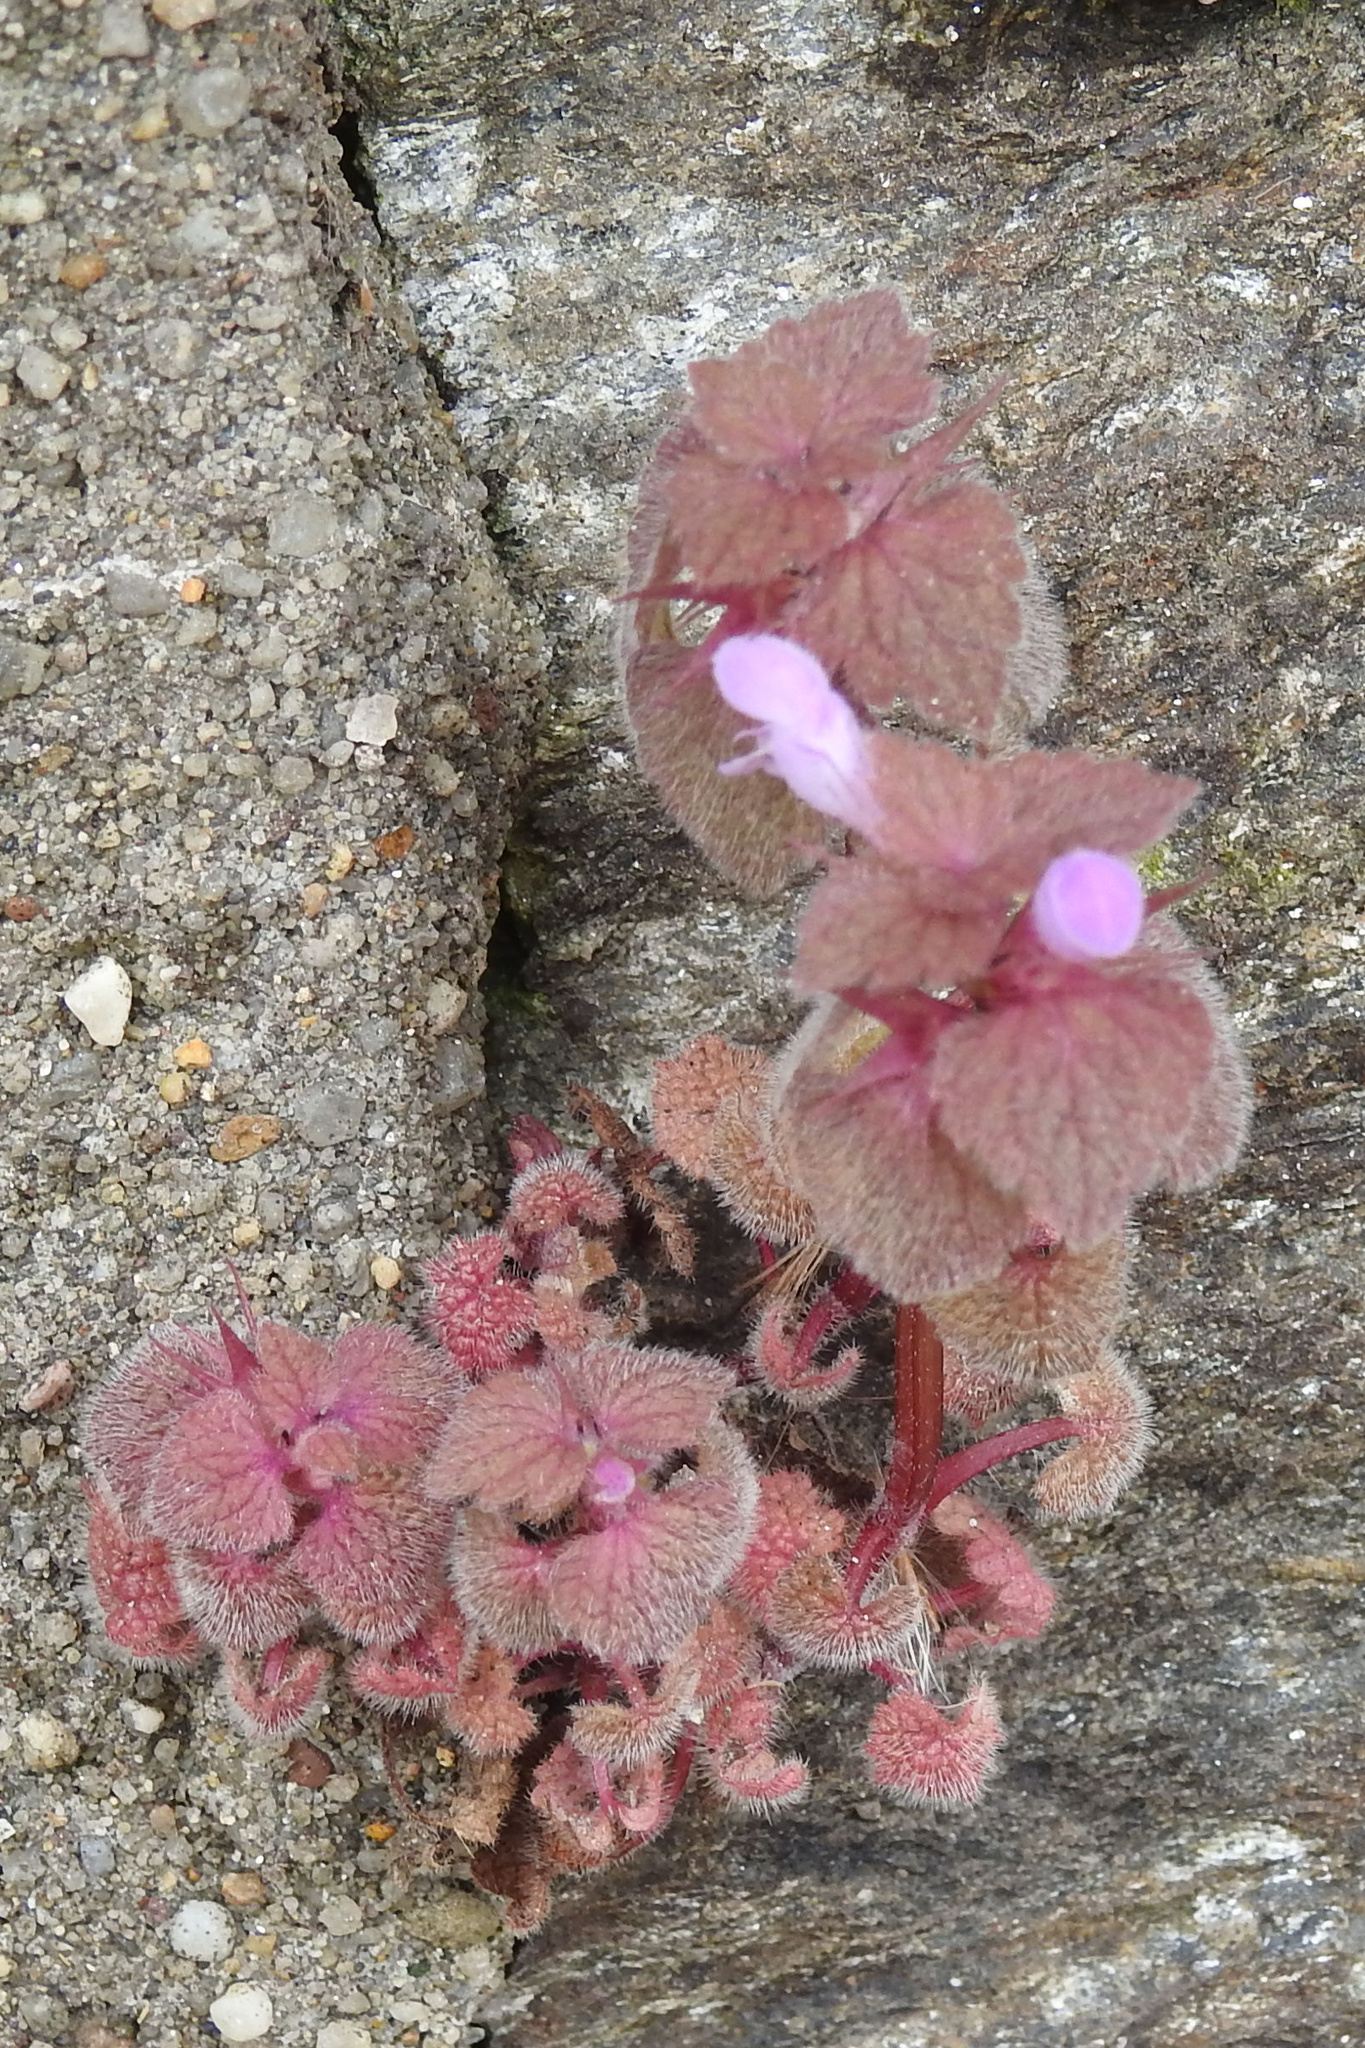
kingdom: Plantae
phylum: Tracheophyta
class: Magnoliopsida
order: Lamiales
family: Lamiaceae
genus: Lamium
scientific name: Lamium purpureum
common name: Red dead-nettle
